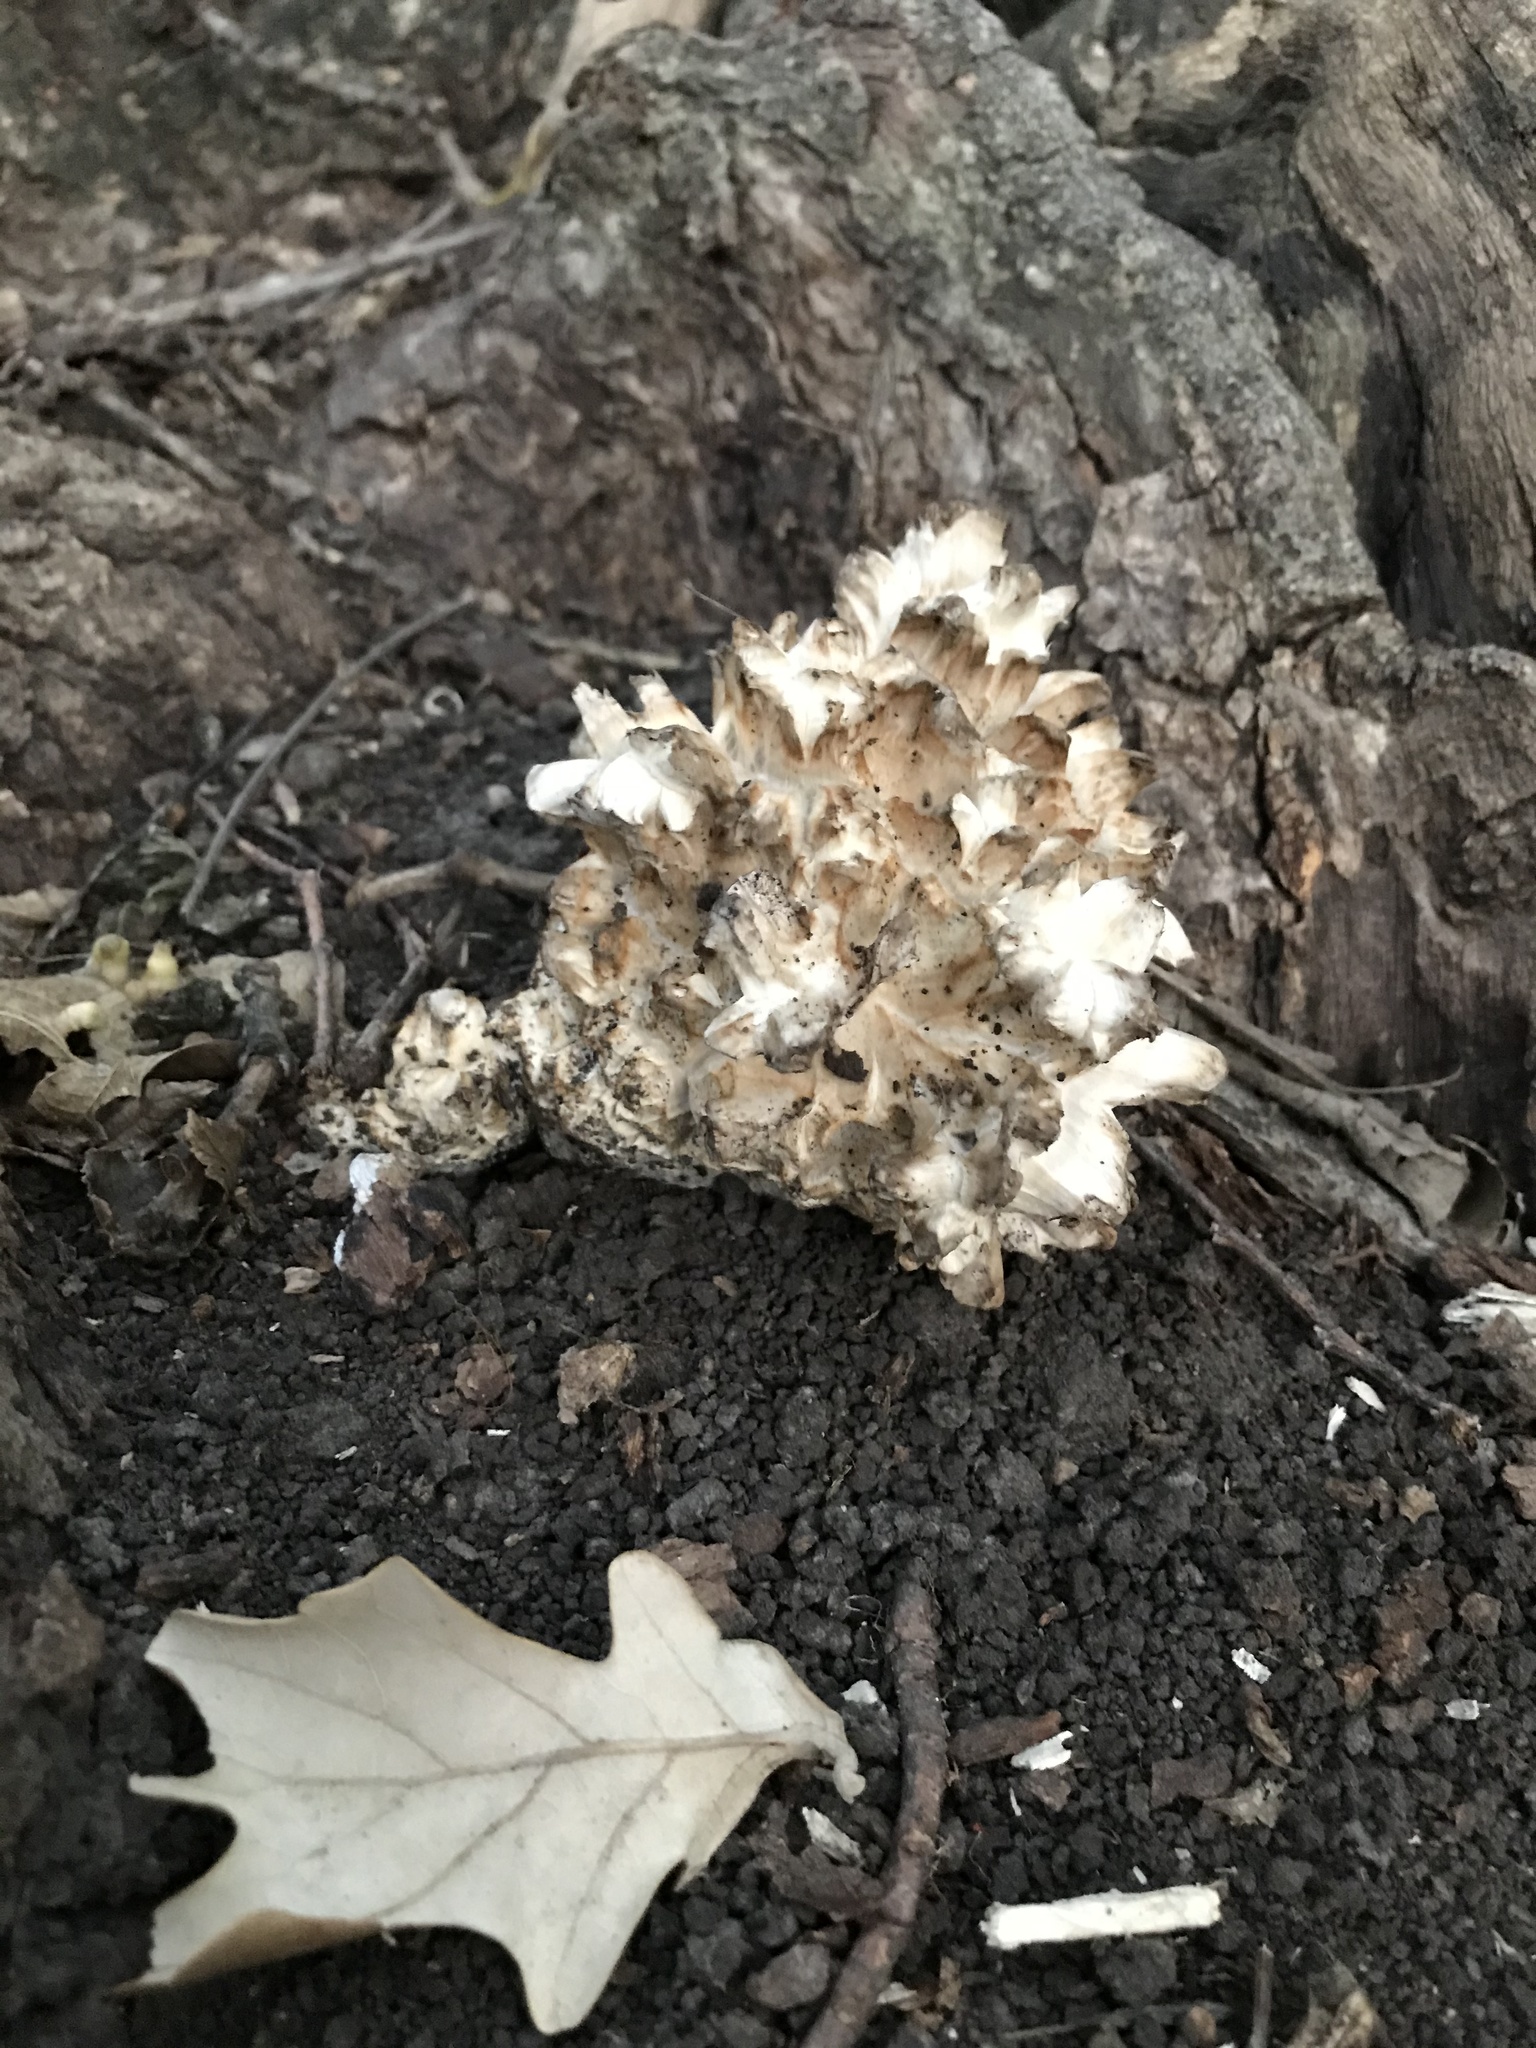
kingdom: Fungi
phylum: Basidiomycota
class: Agaricomycetes
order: Polyporales
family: Grifolaceae
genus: Grifola
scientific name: Grifola frondosa
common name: Hen of the woods
